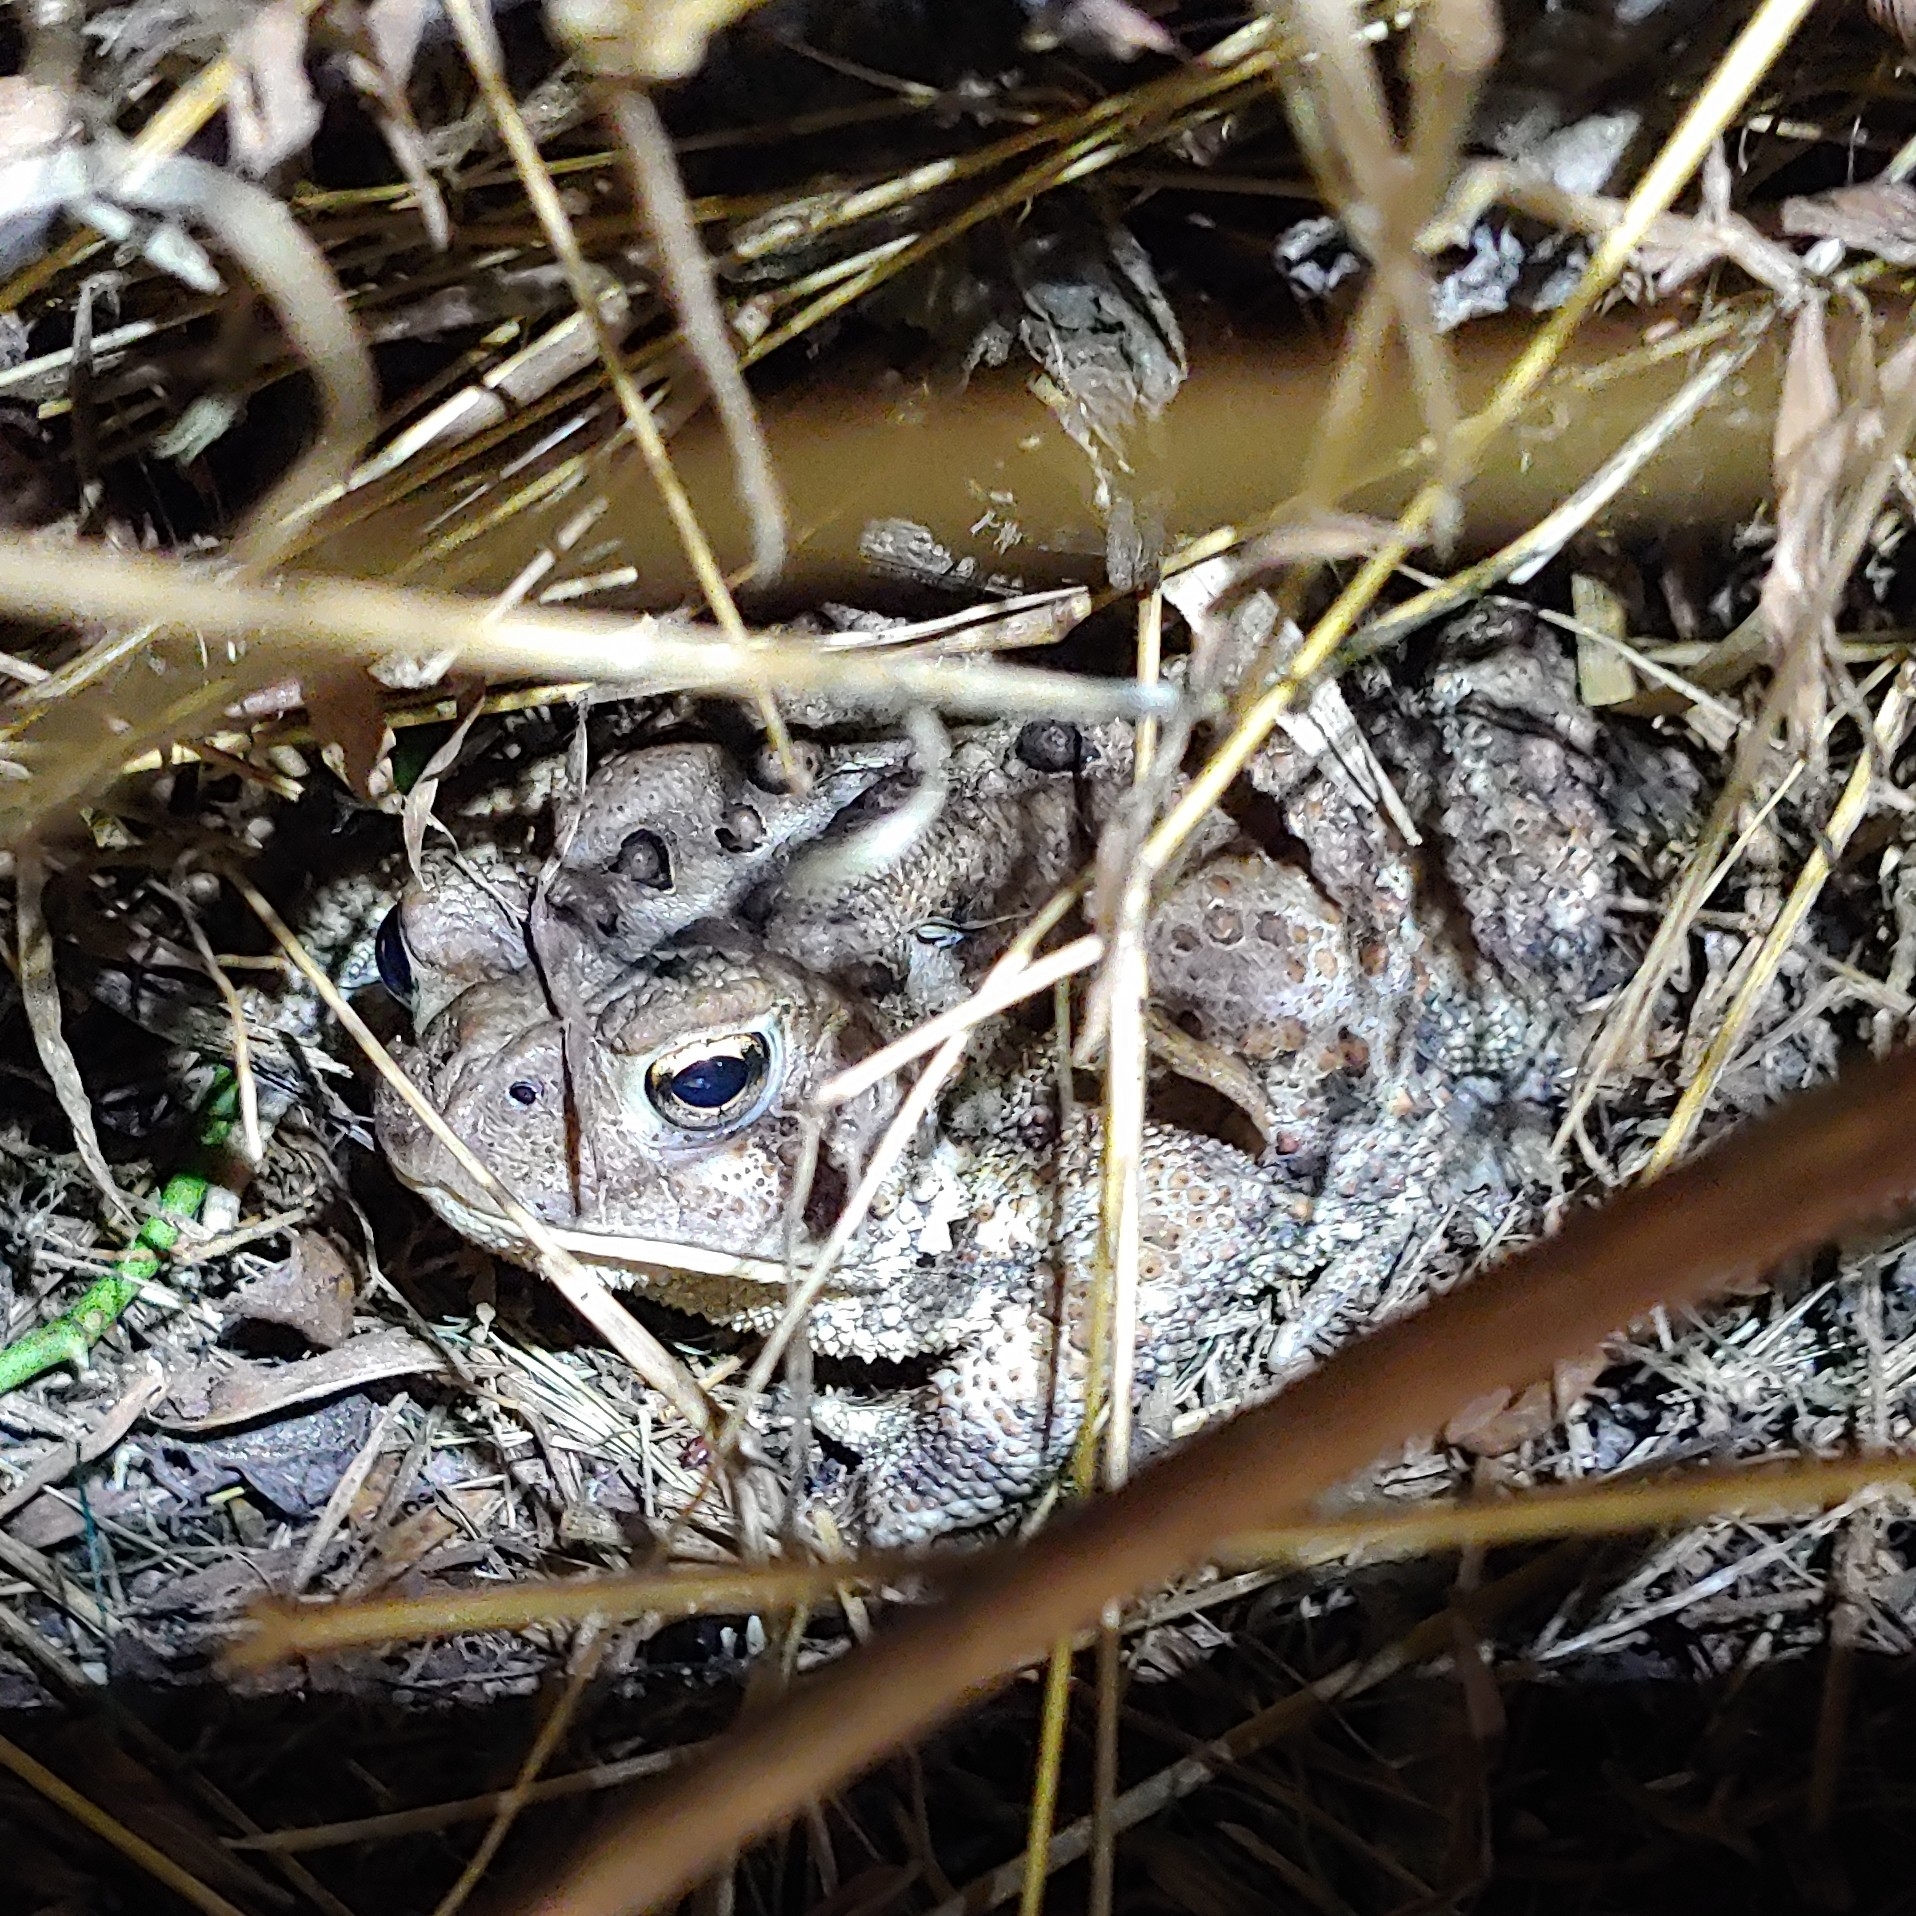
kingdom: Animalia
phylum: Chordata
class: Amphibia
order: Anura
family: Bufonidae
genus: Anaxyrus
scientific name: Anaxyrus americanus
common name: American toad
